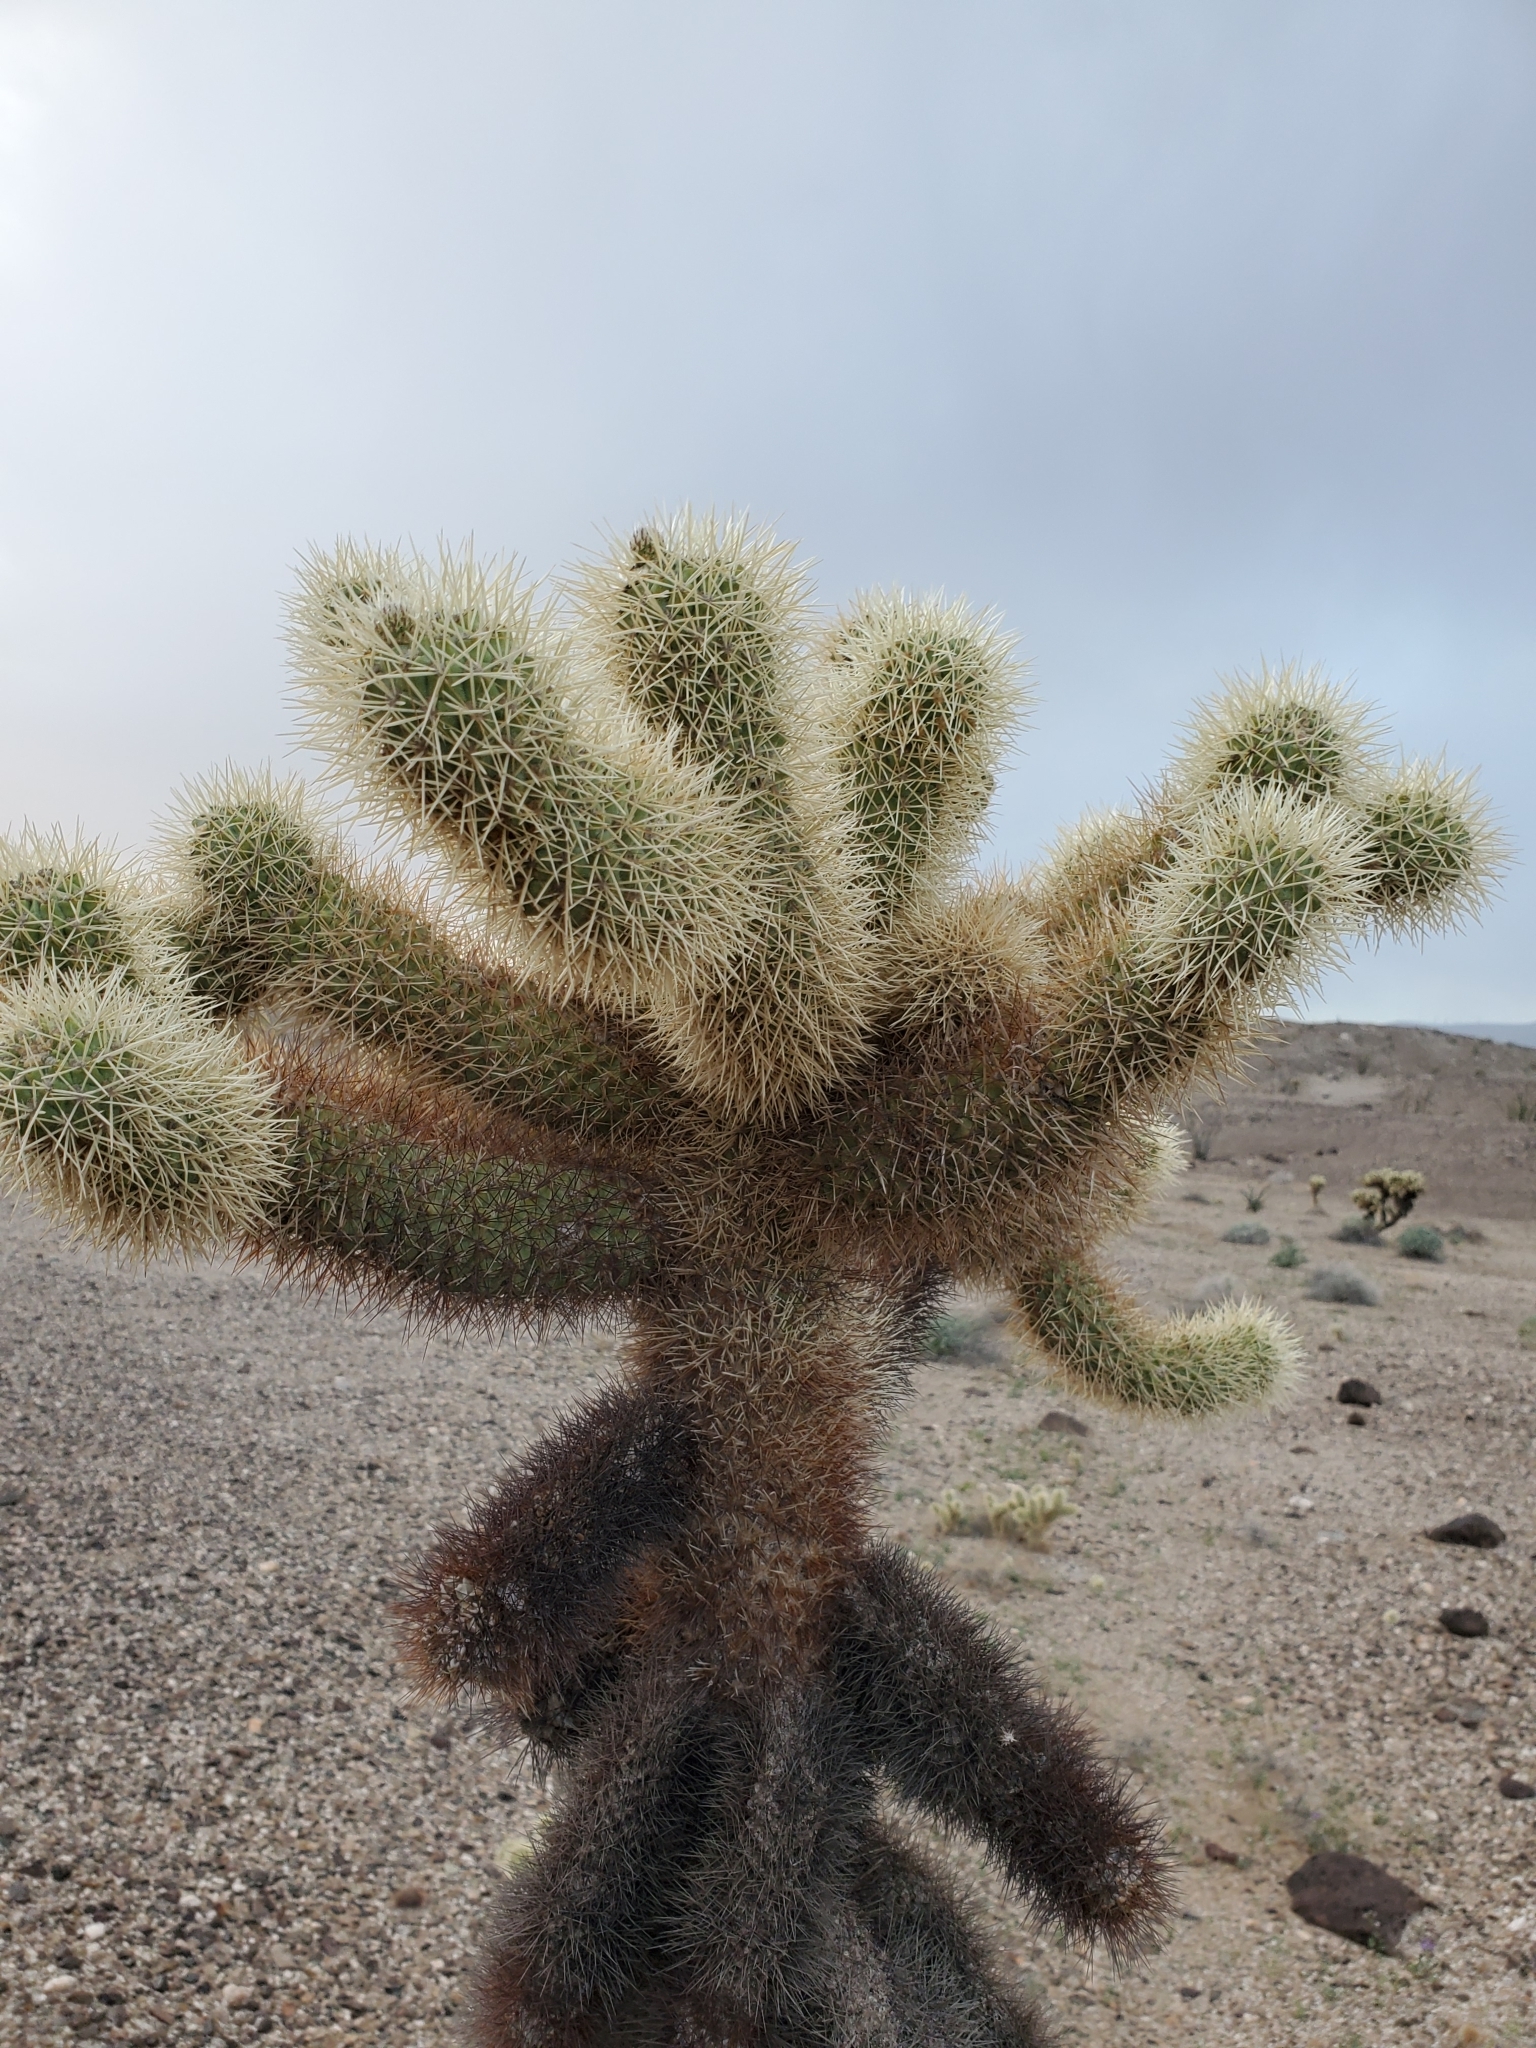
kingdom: Plantae
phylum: Tracheophyta
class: Magnoliopsida
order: Caryophyllales
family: Cactaceae
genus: Cylindropuntia
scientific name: Cylindropuntia fosbergii
